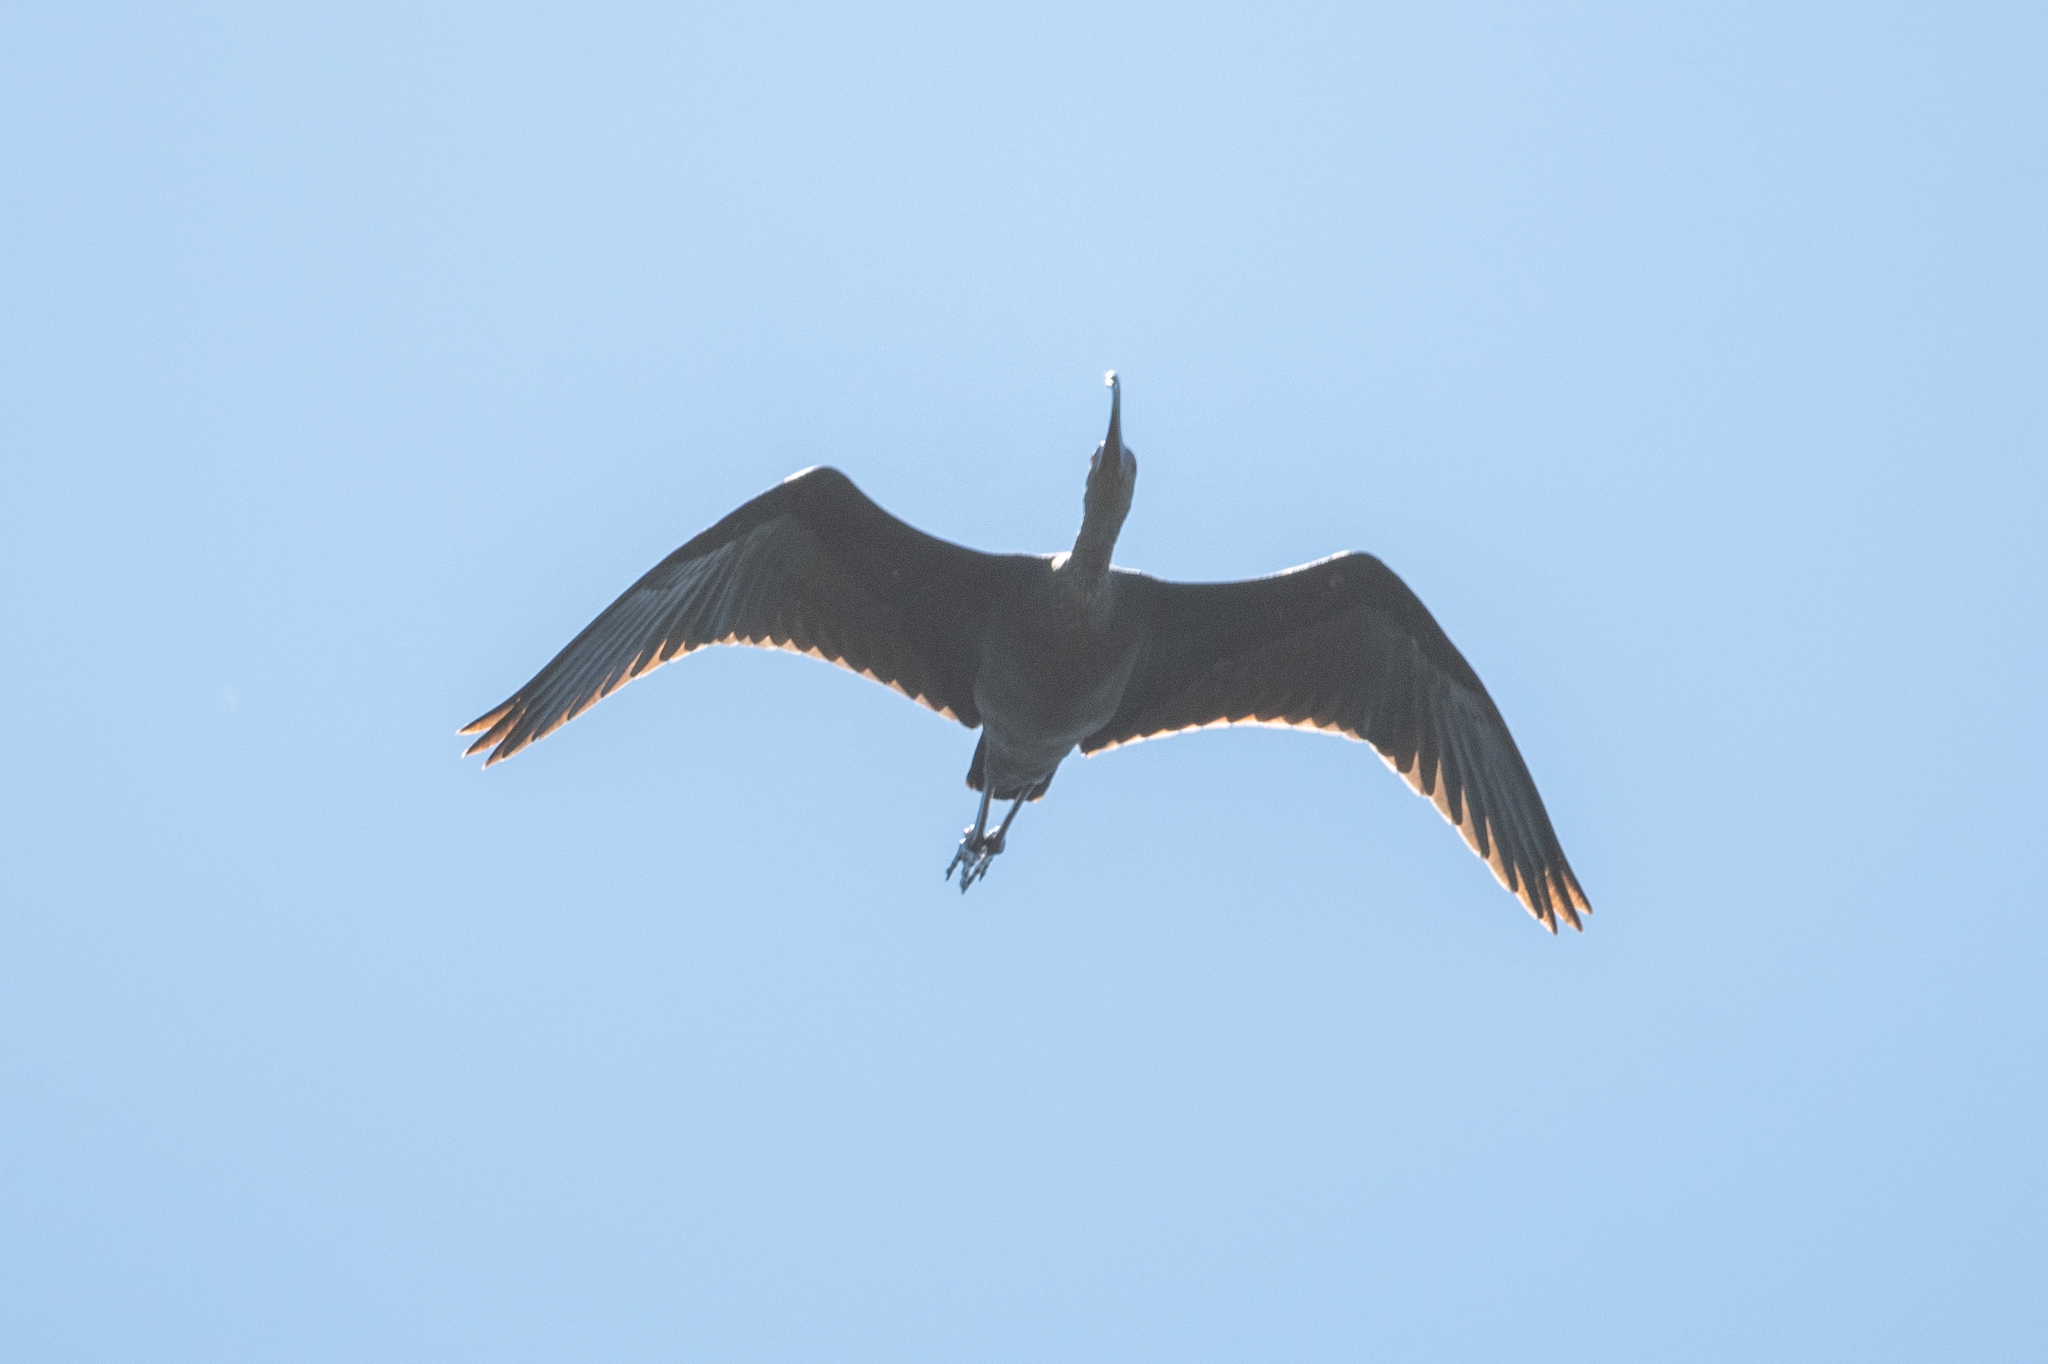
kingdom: Animalia
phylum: Chordata
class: Aves
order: Pelecaniformes
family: Threskiornithidae
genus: Plegadis
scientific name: Plegadis chihi
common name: White-faced ibis
